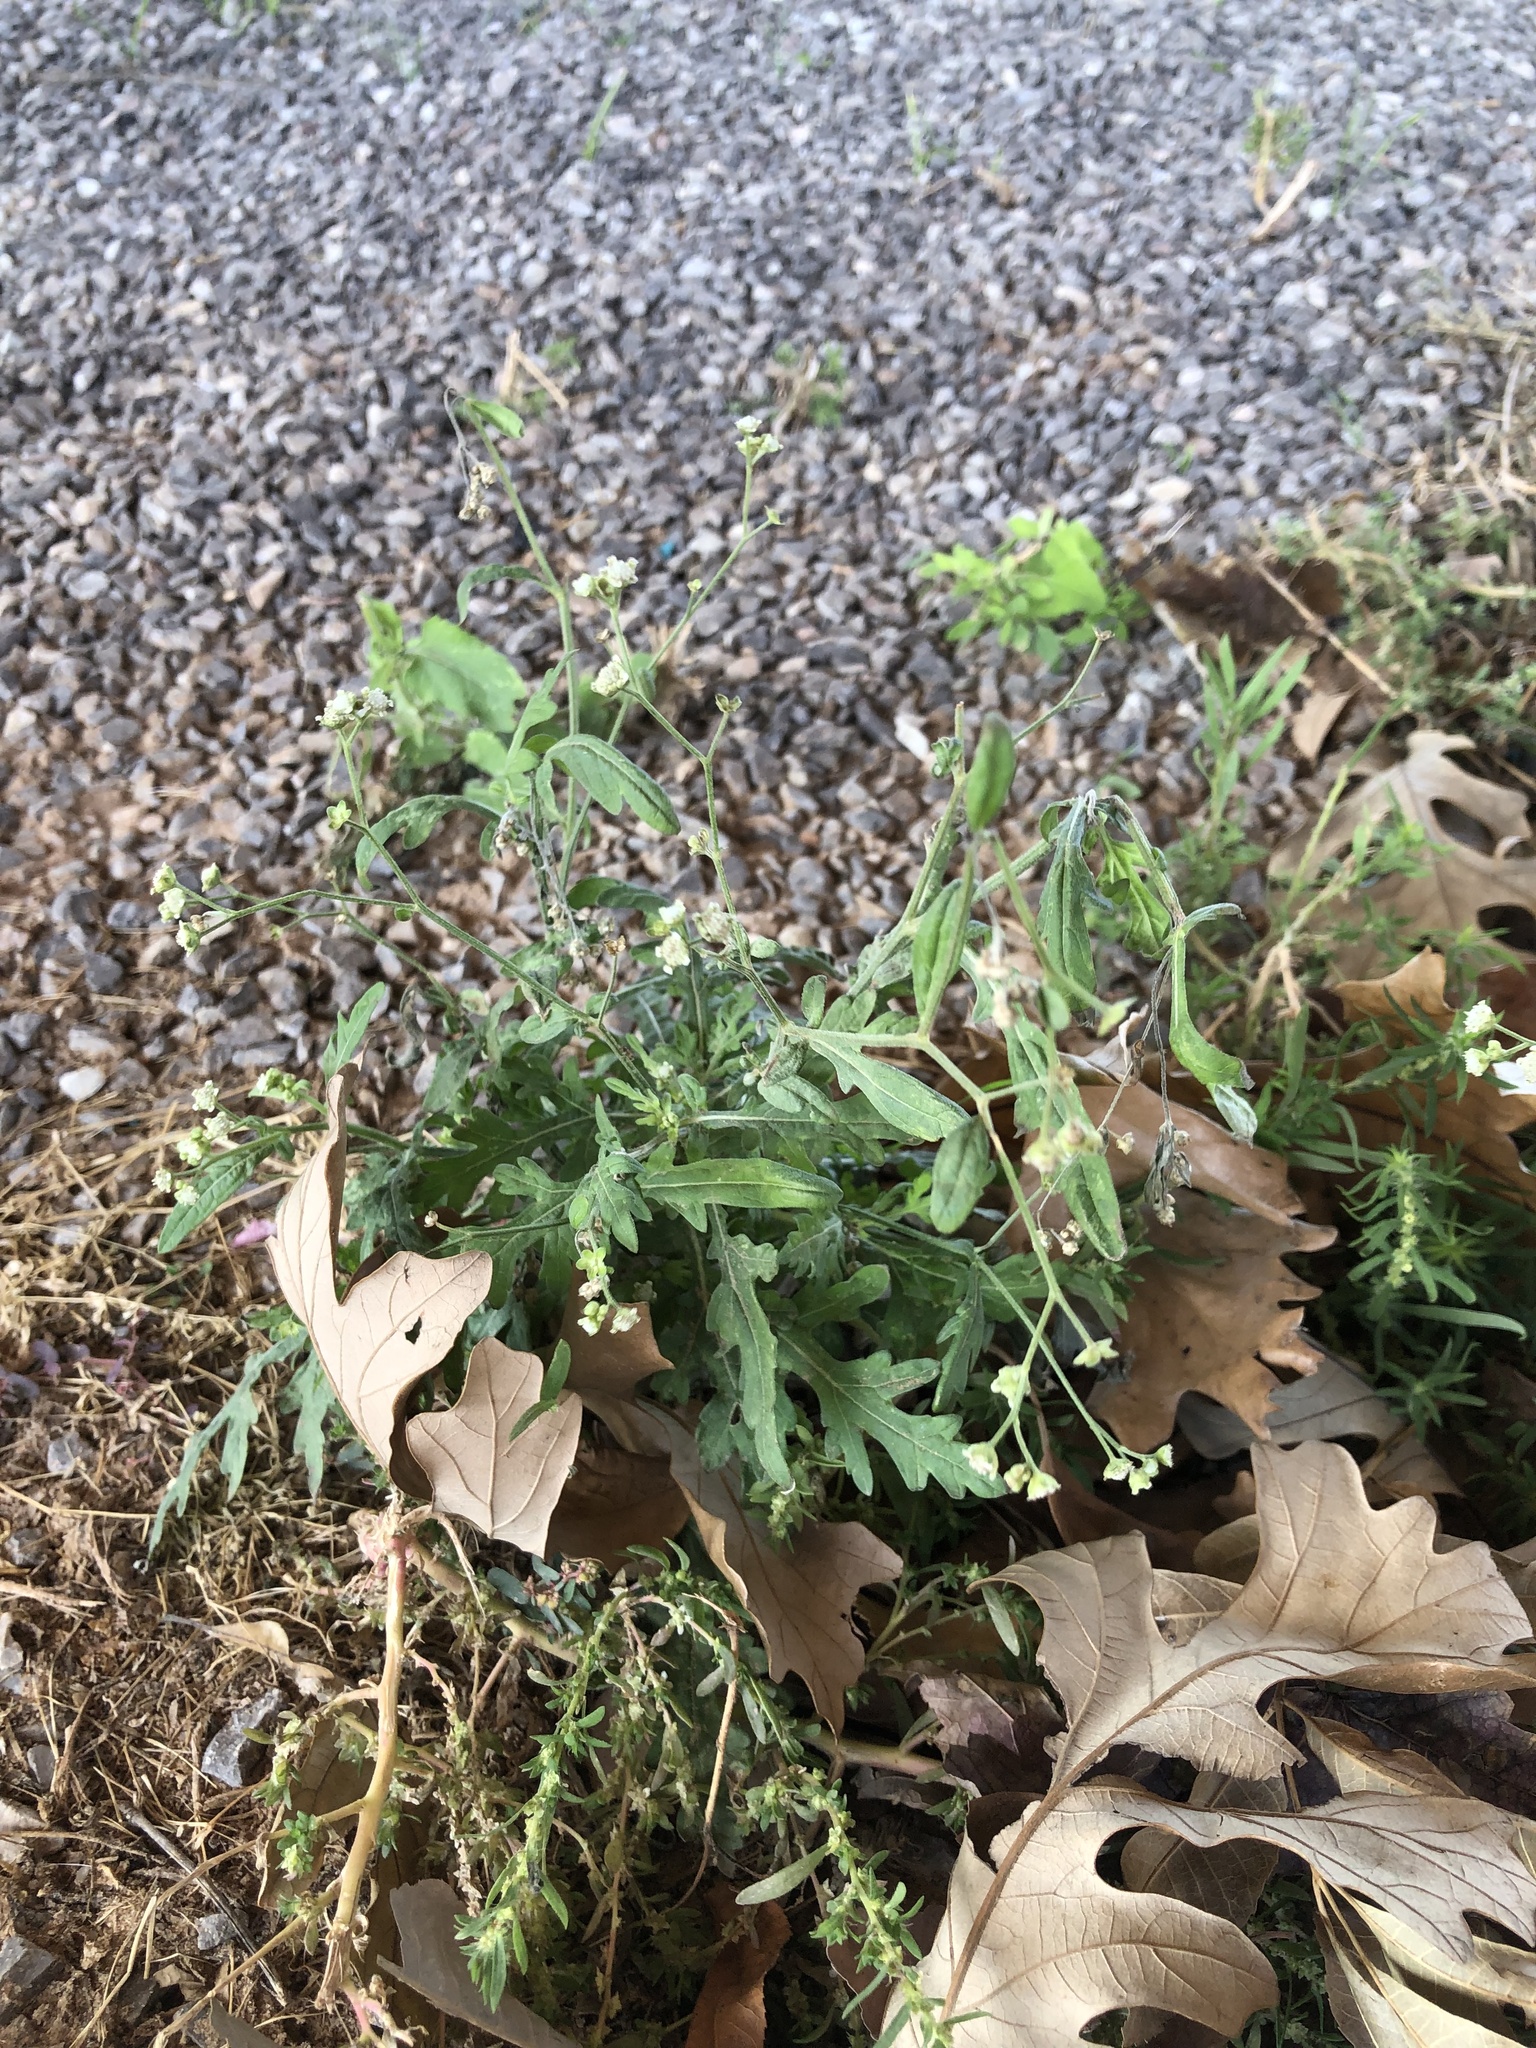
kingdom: Plantae
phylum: Tracheophyta
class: Magnoliopsida
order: Asterales
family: Asteraceae
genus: Parthenium
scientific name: Parthenium hysterophorus
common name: Santa maria feverfew
